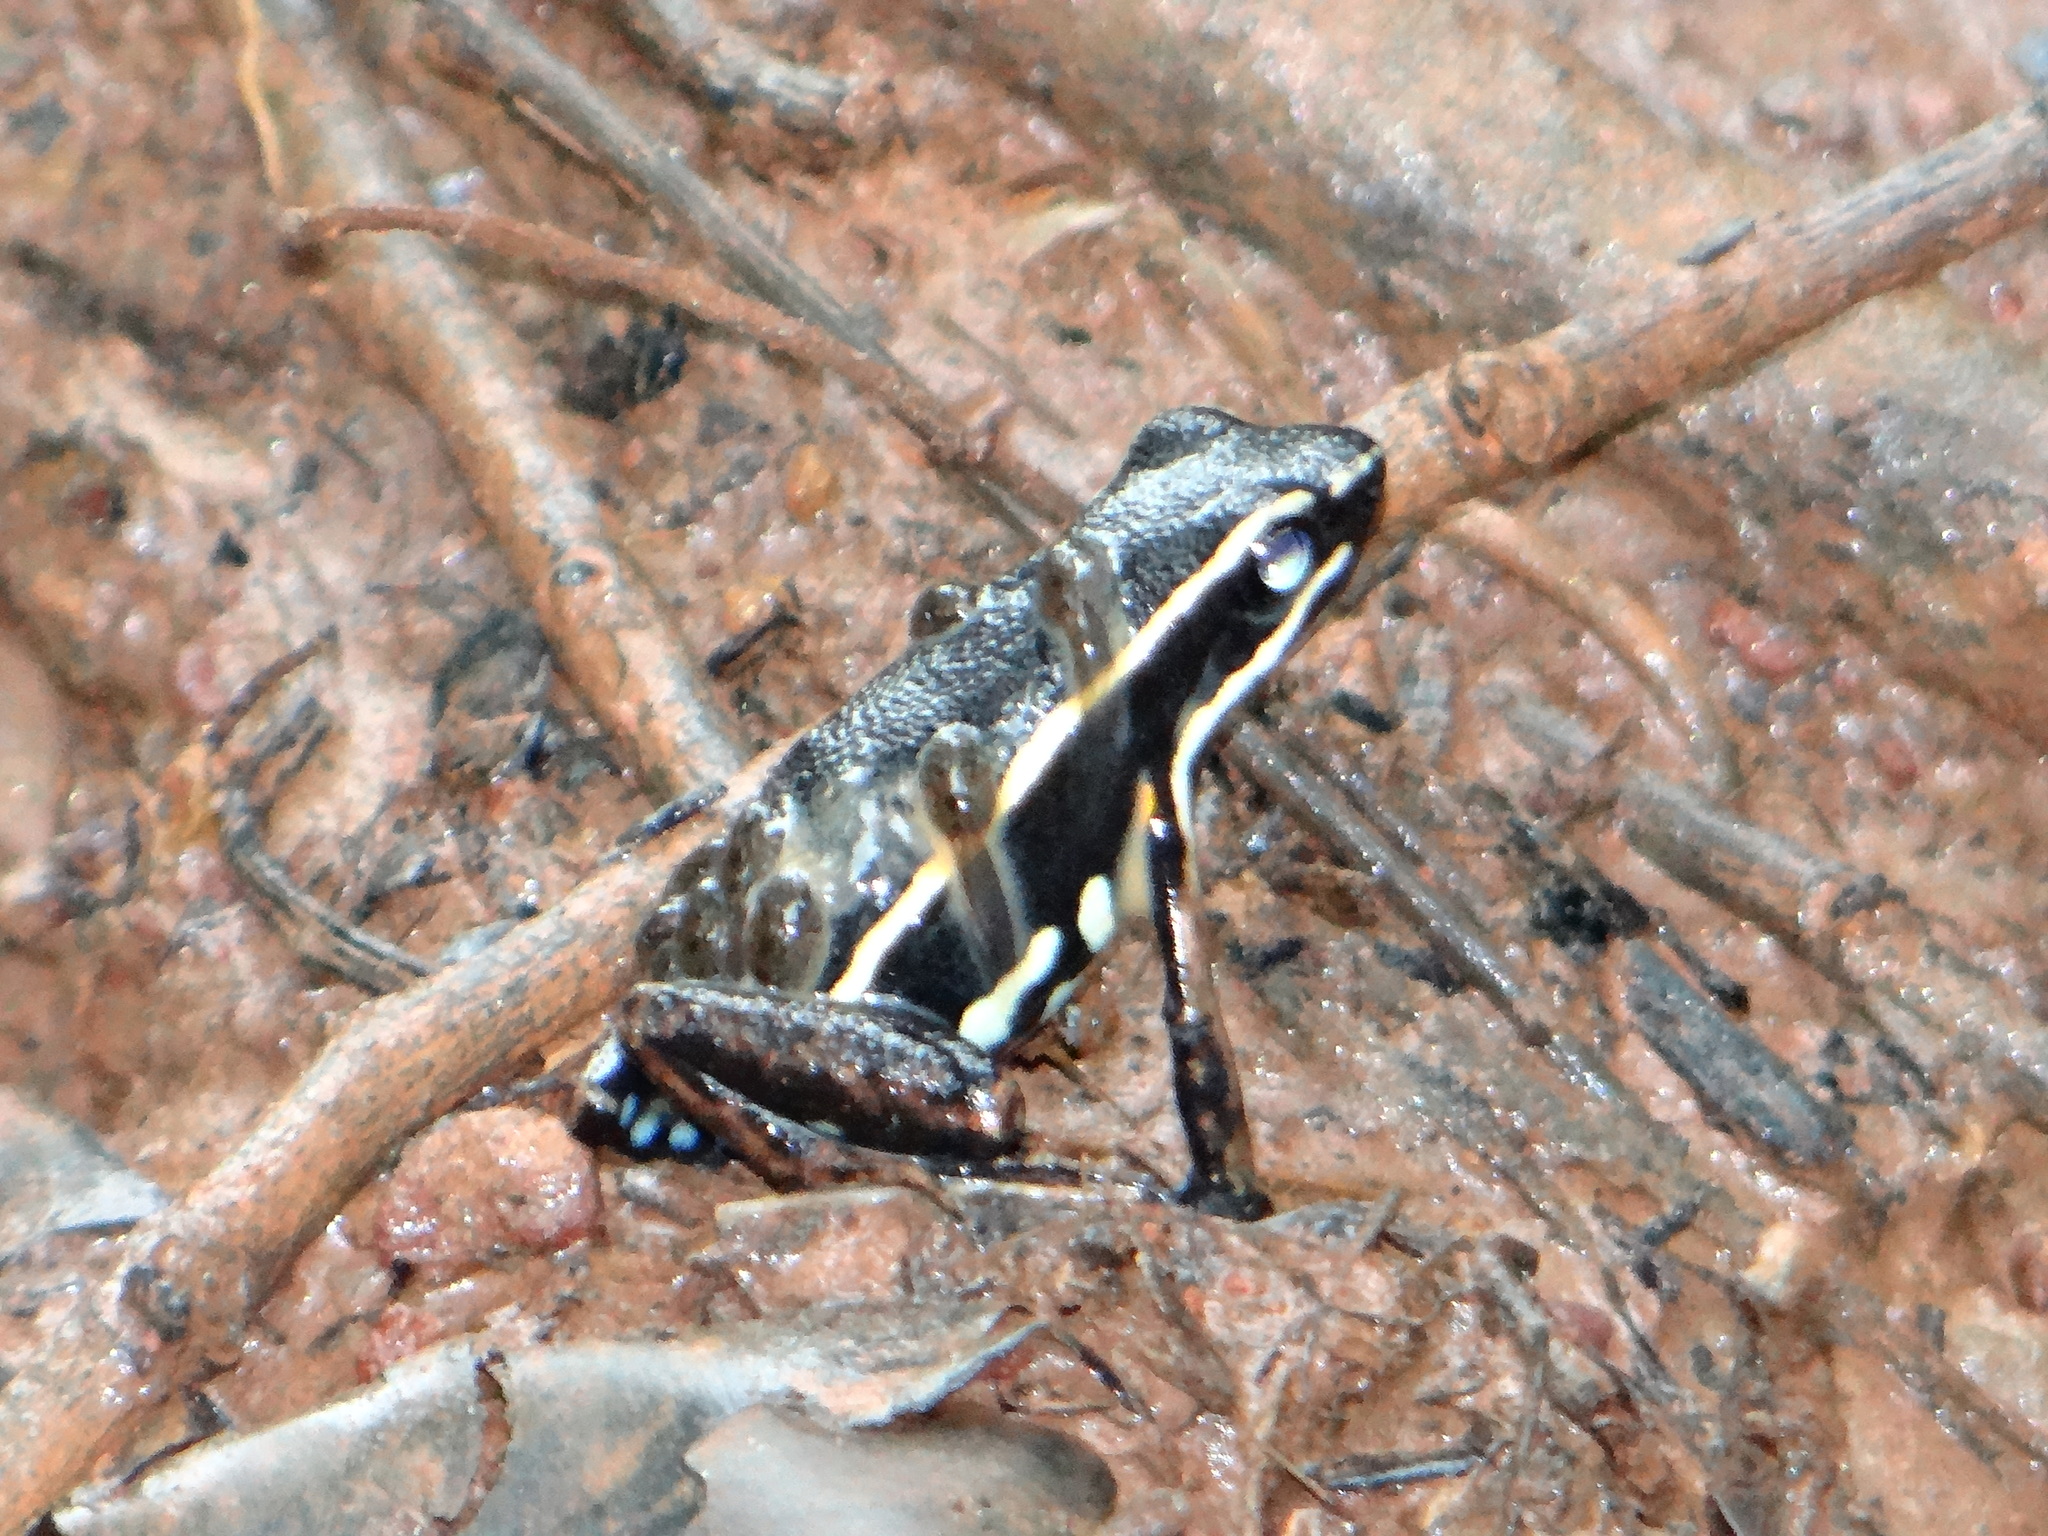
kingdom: Animalia
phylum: Chordata
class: Amphibia
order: Anura
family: Dendrobatidae
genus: Ameerega
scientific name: Ameerega picta
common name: Spot-legged poison frog
